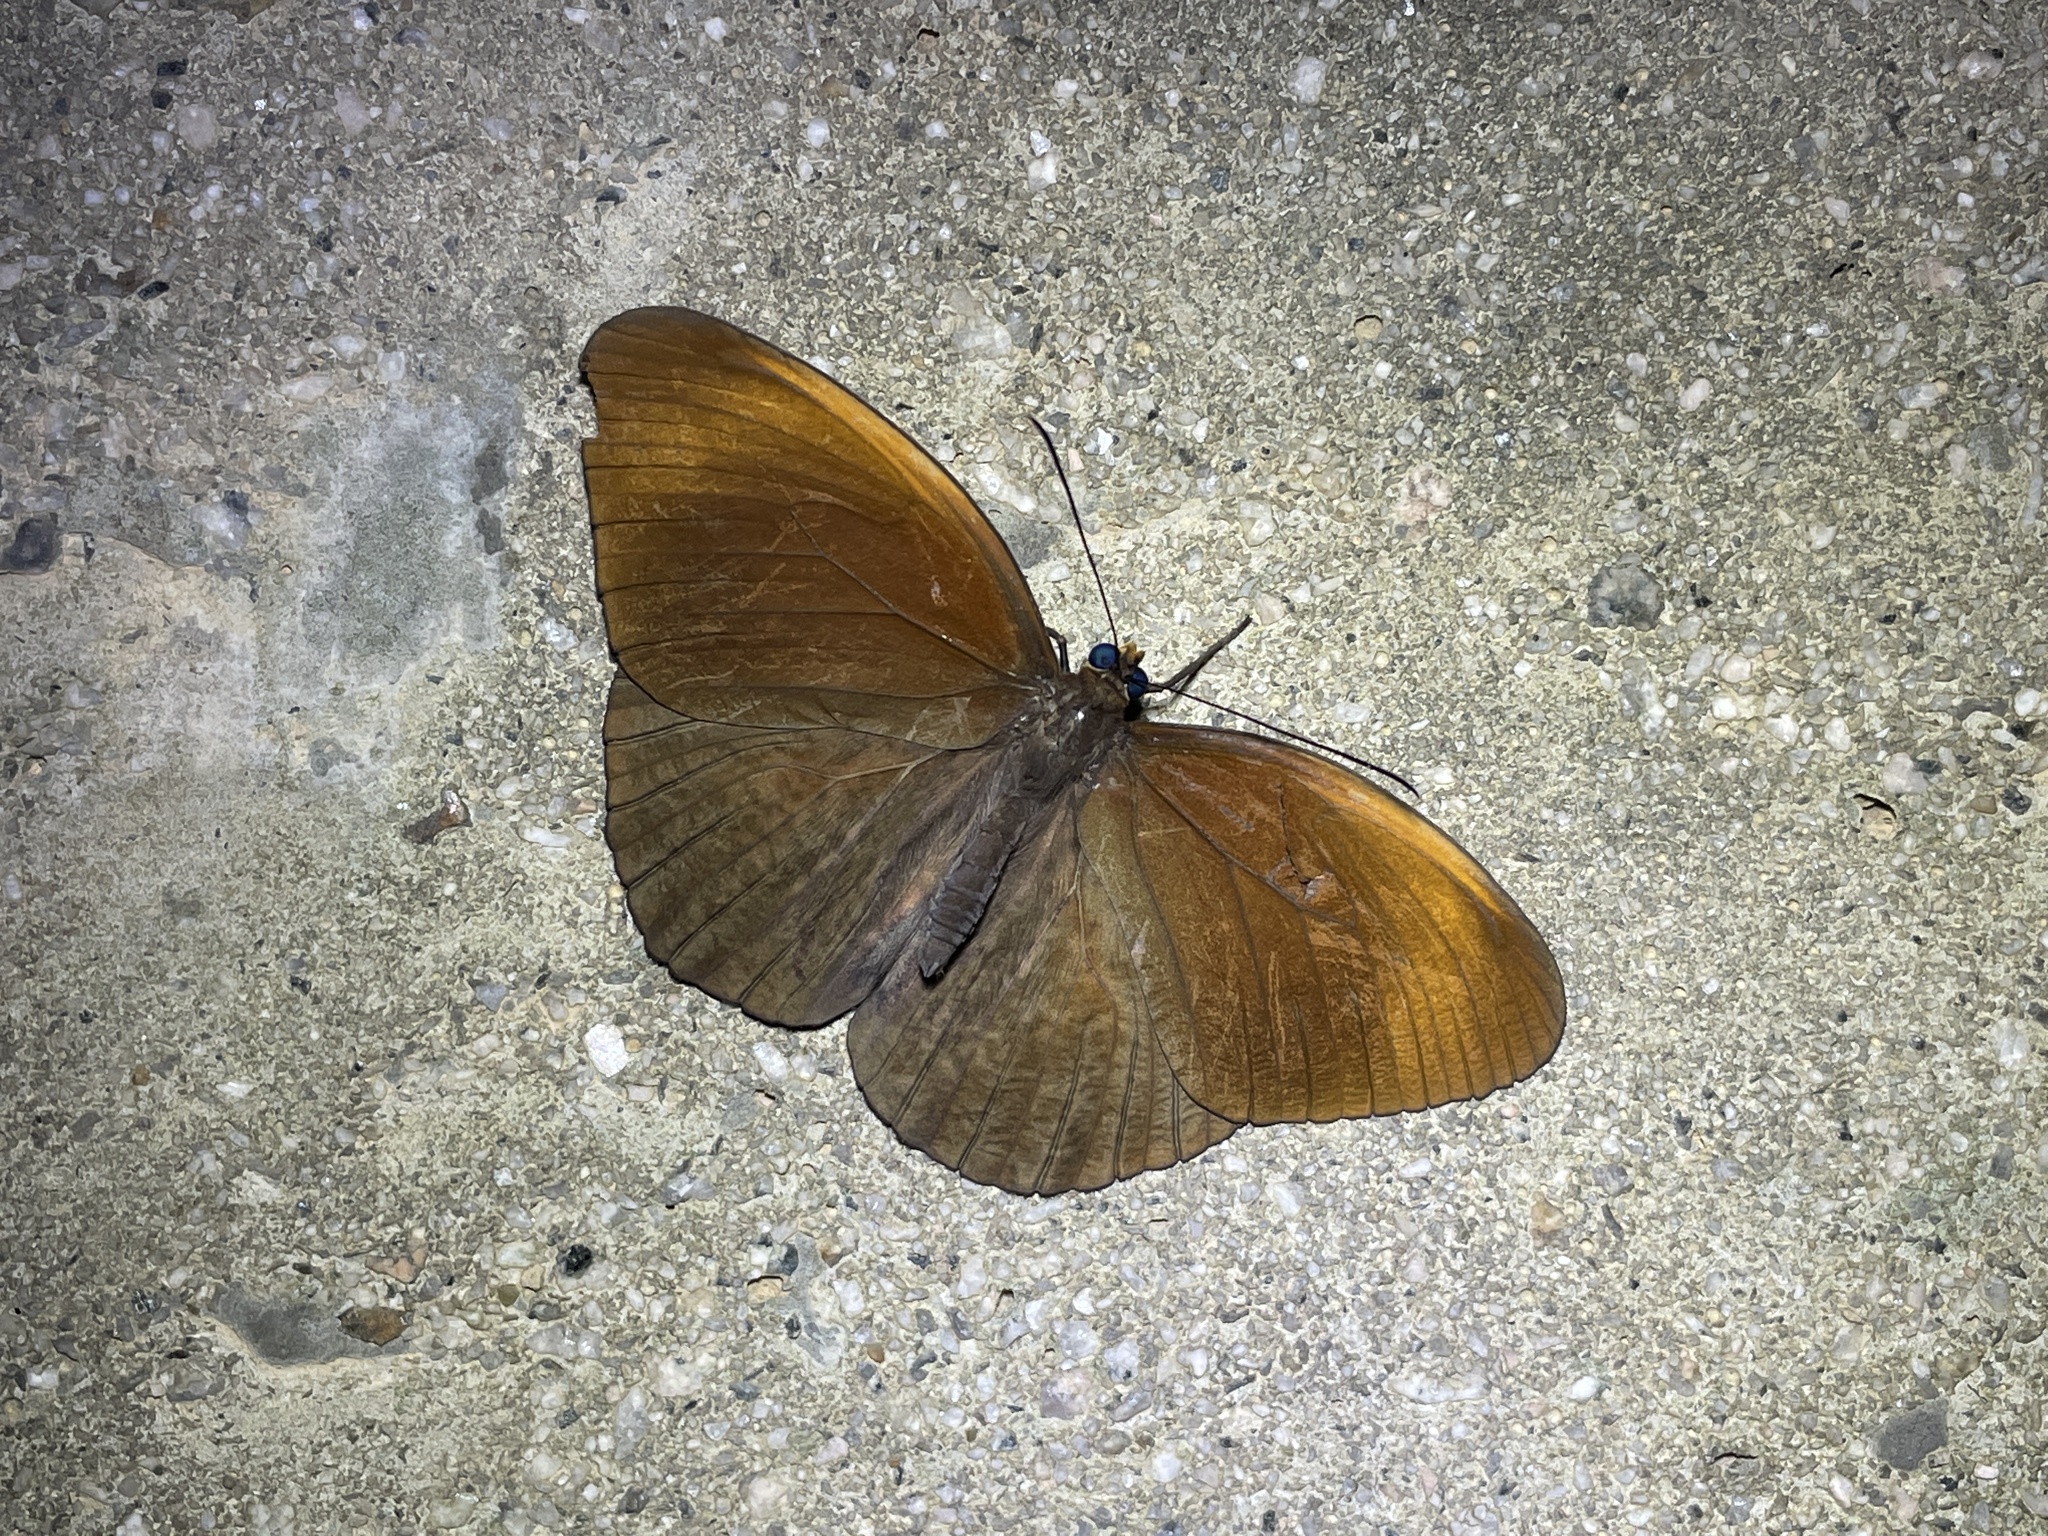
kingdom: Animalia
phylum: Arthropoda
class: Insecta
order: Lepidoptera
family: Nymphalidae
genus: Faunis
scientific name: Faunis eumeus
